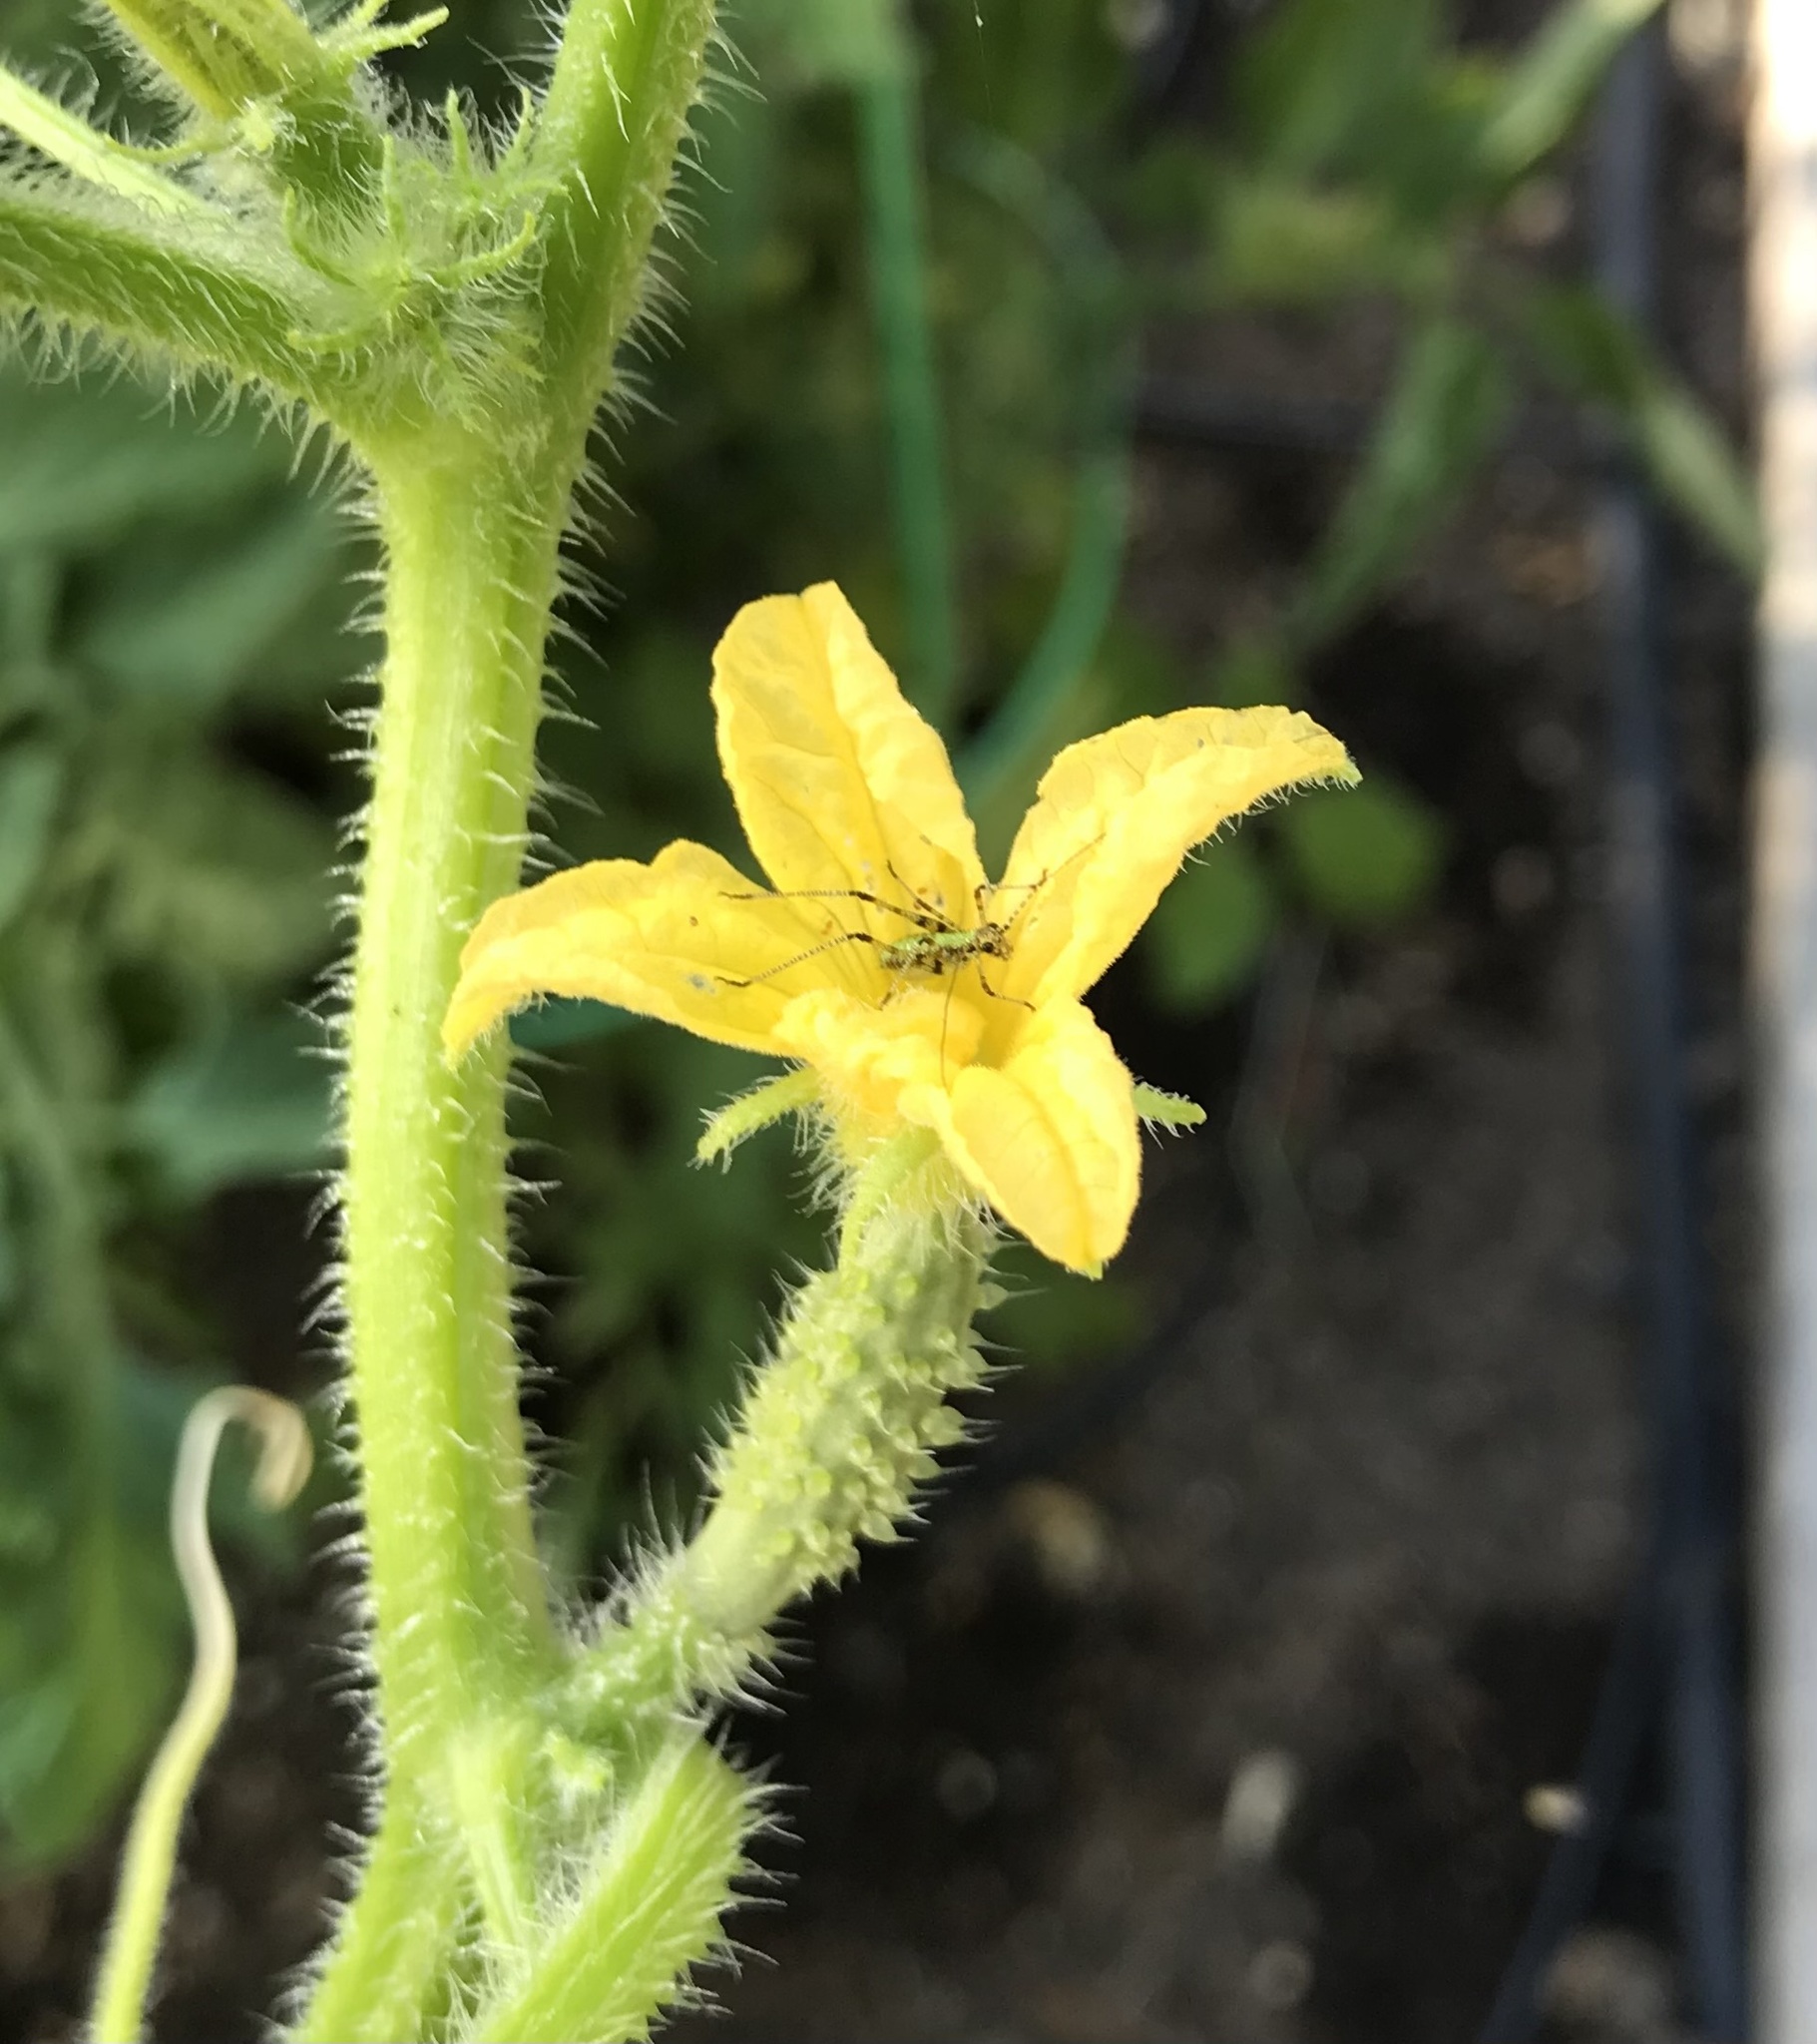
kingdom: Plantae
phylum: Tracheophyta
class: Magnoliopsida
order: Cucurbitales
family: Cucurbitaceae
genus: Cucumis
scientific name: Cucumis sativus
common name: Cucumber
